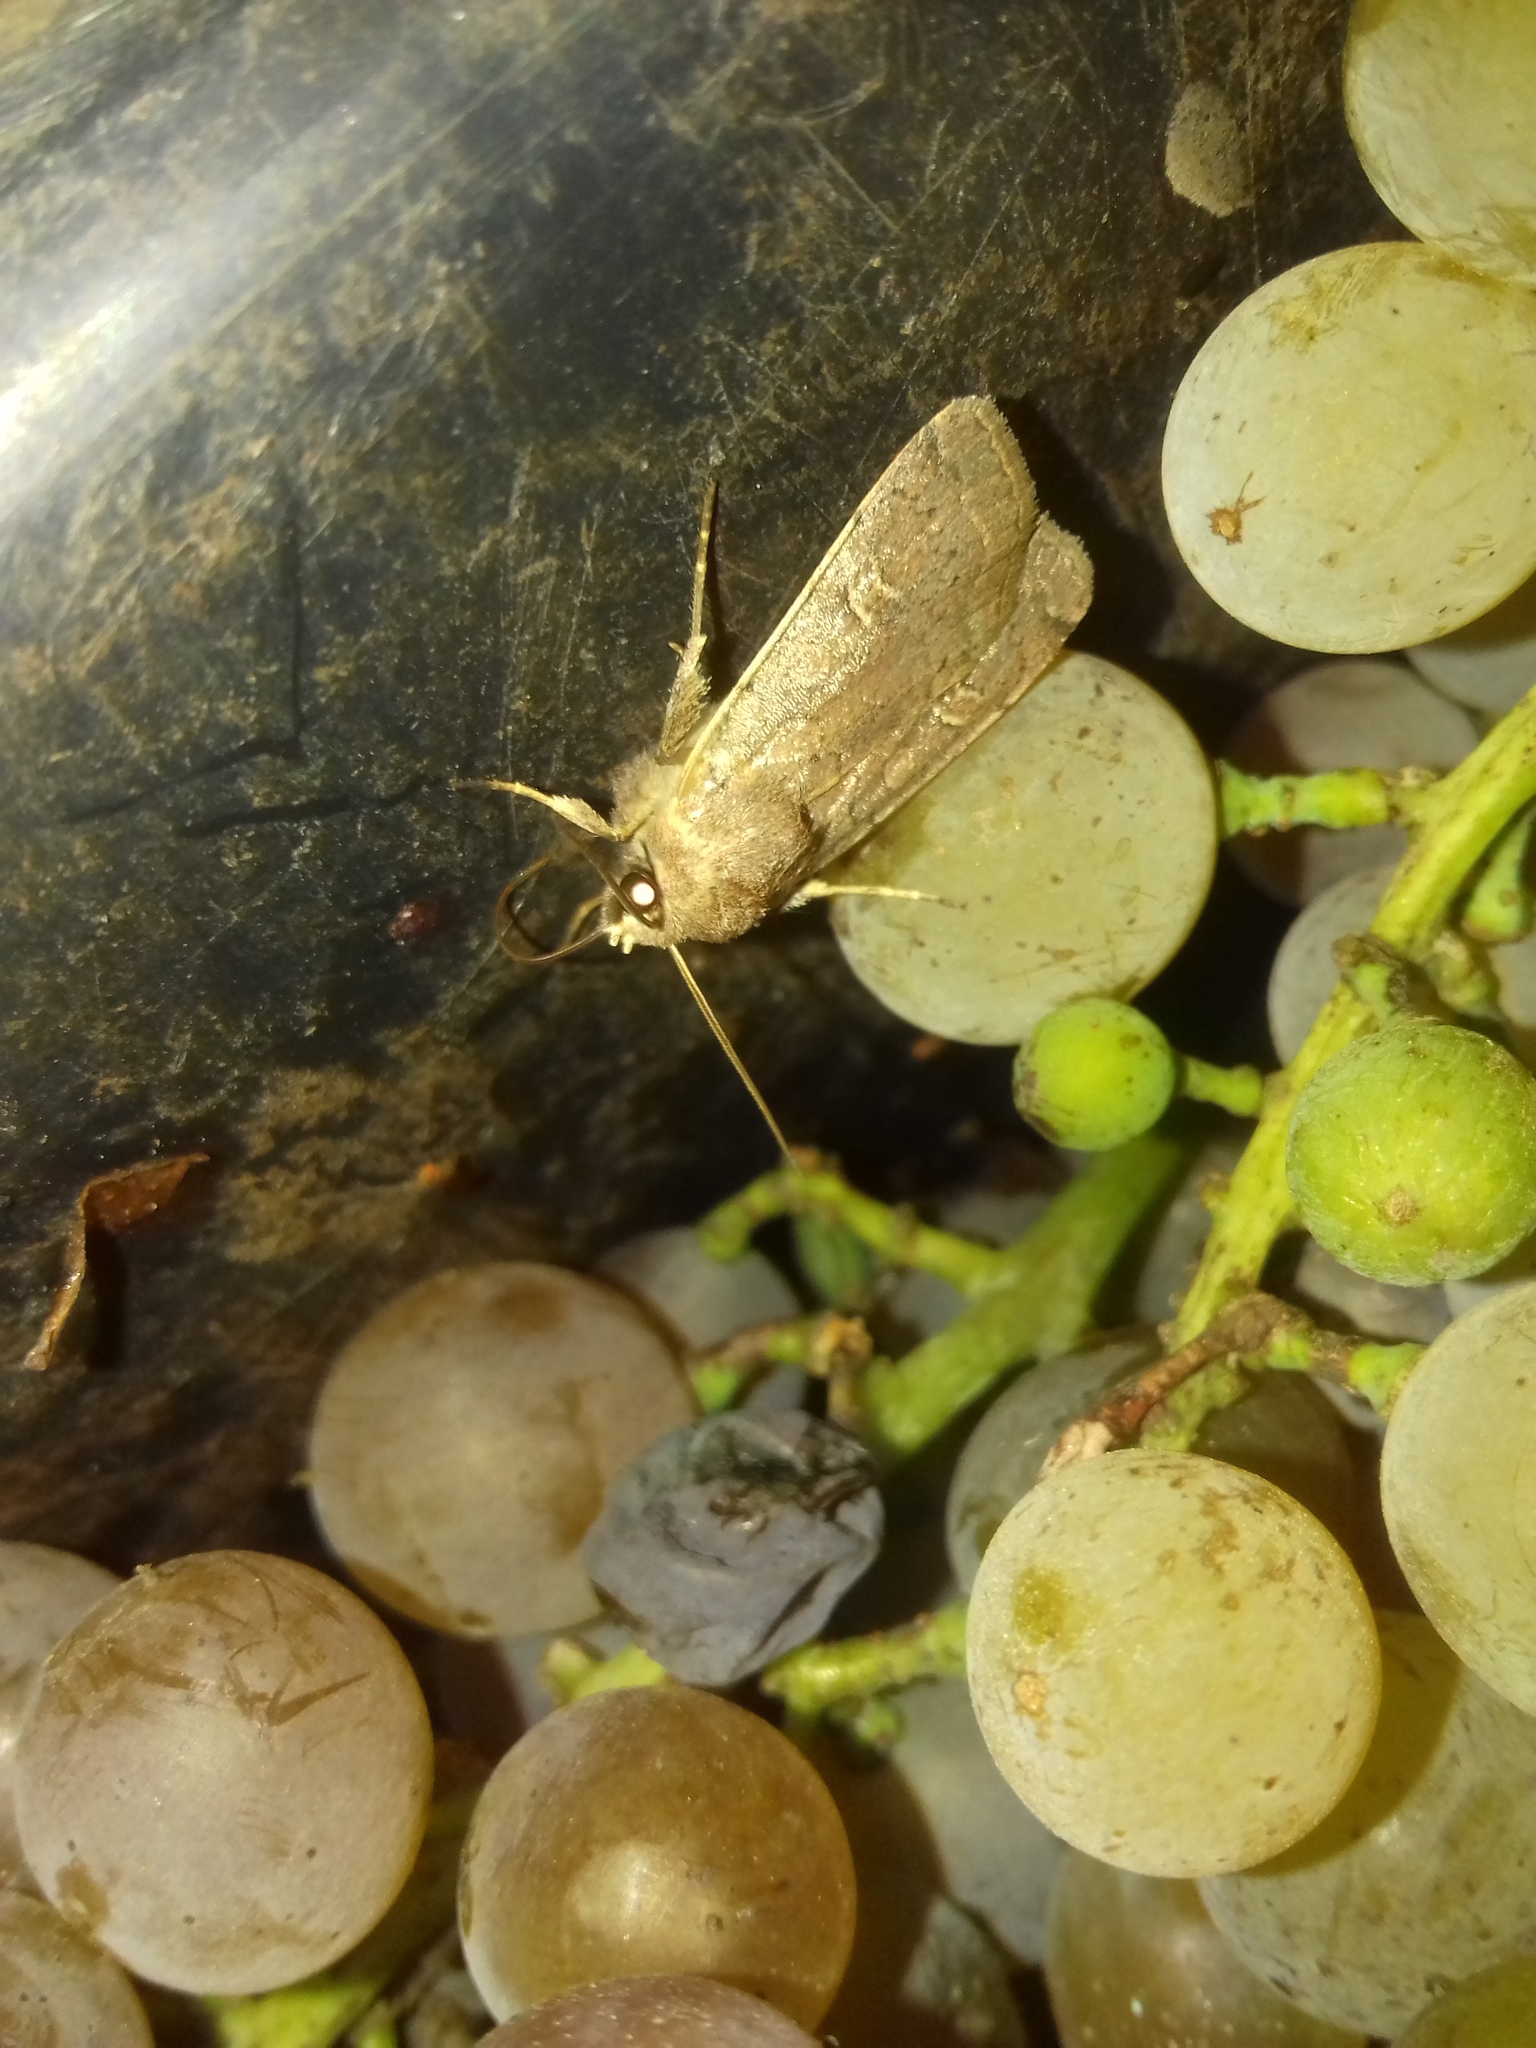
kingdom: Animalia
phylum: Arthropoda
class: Insecta
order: Lepidoptera
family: Noctuidae
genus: Xestia
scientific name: Xestia xanthographa
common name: Square-spot rustic
